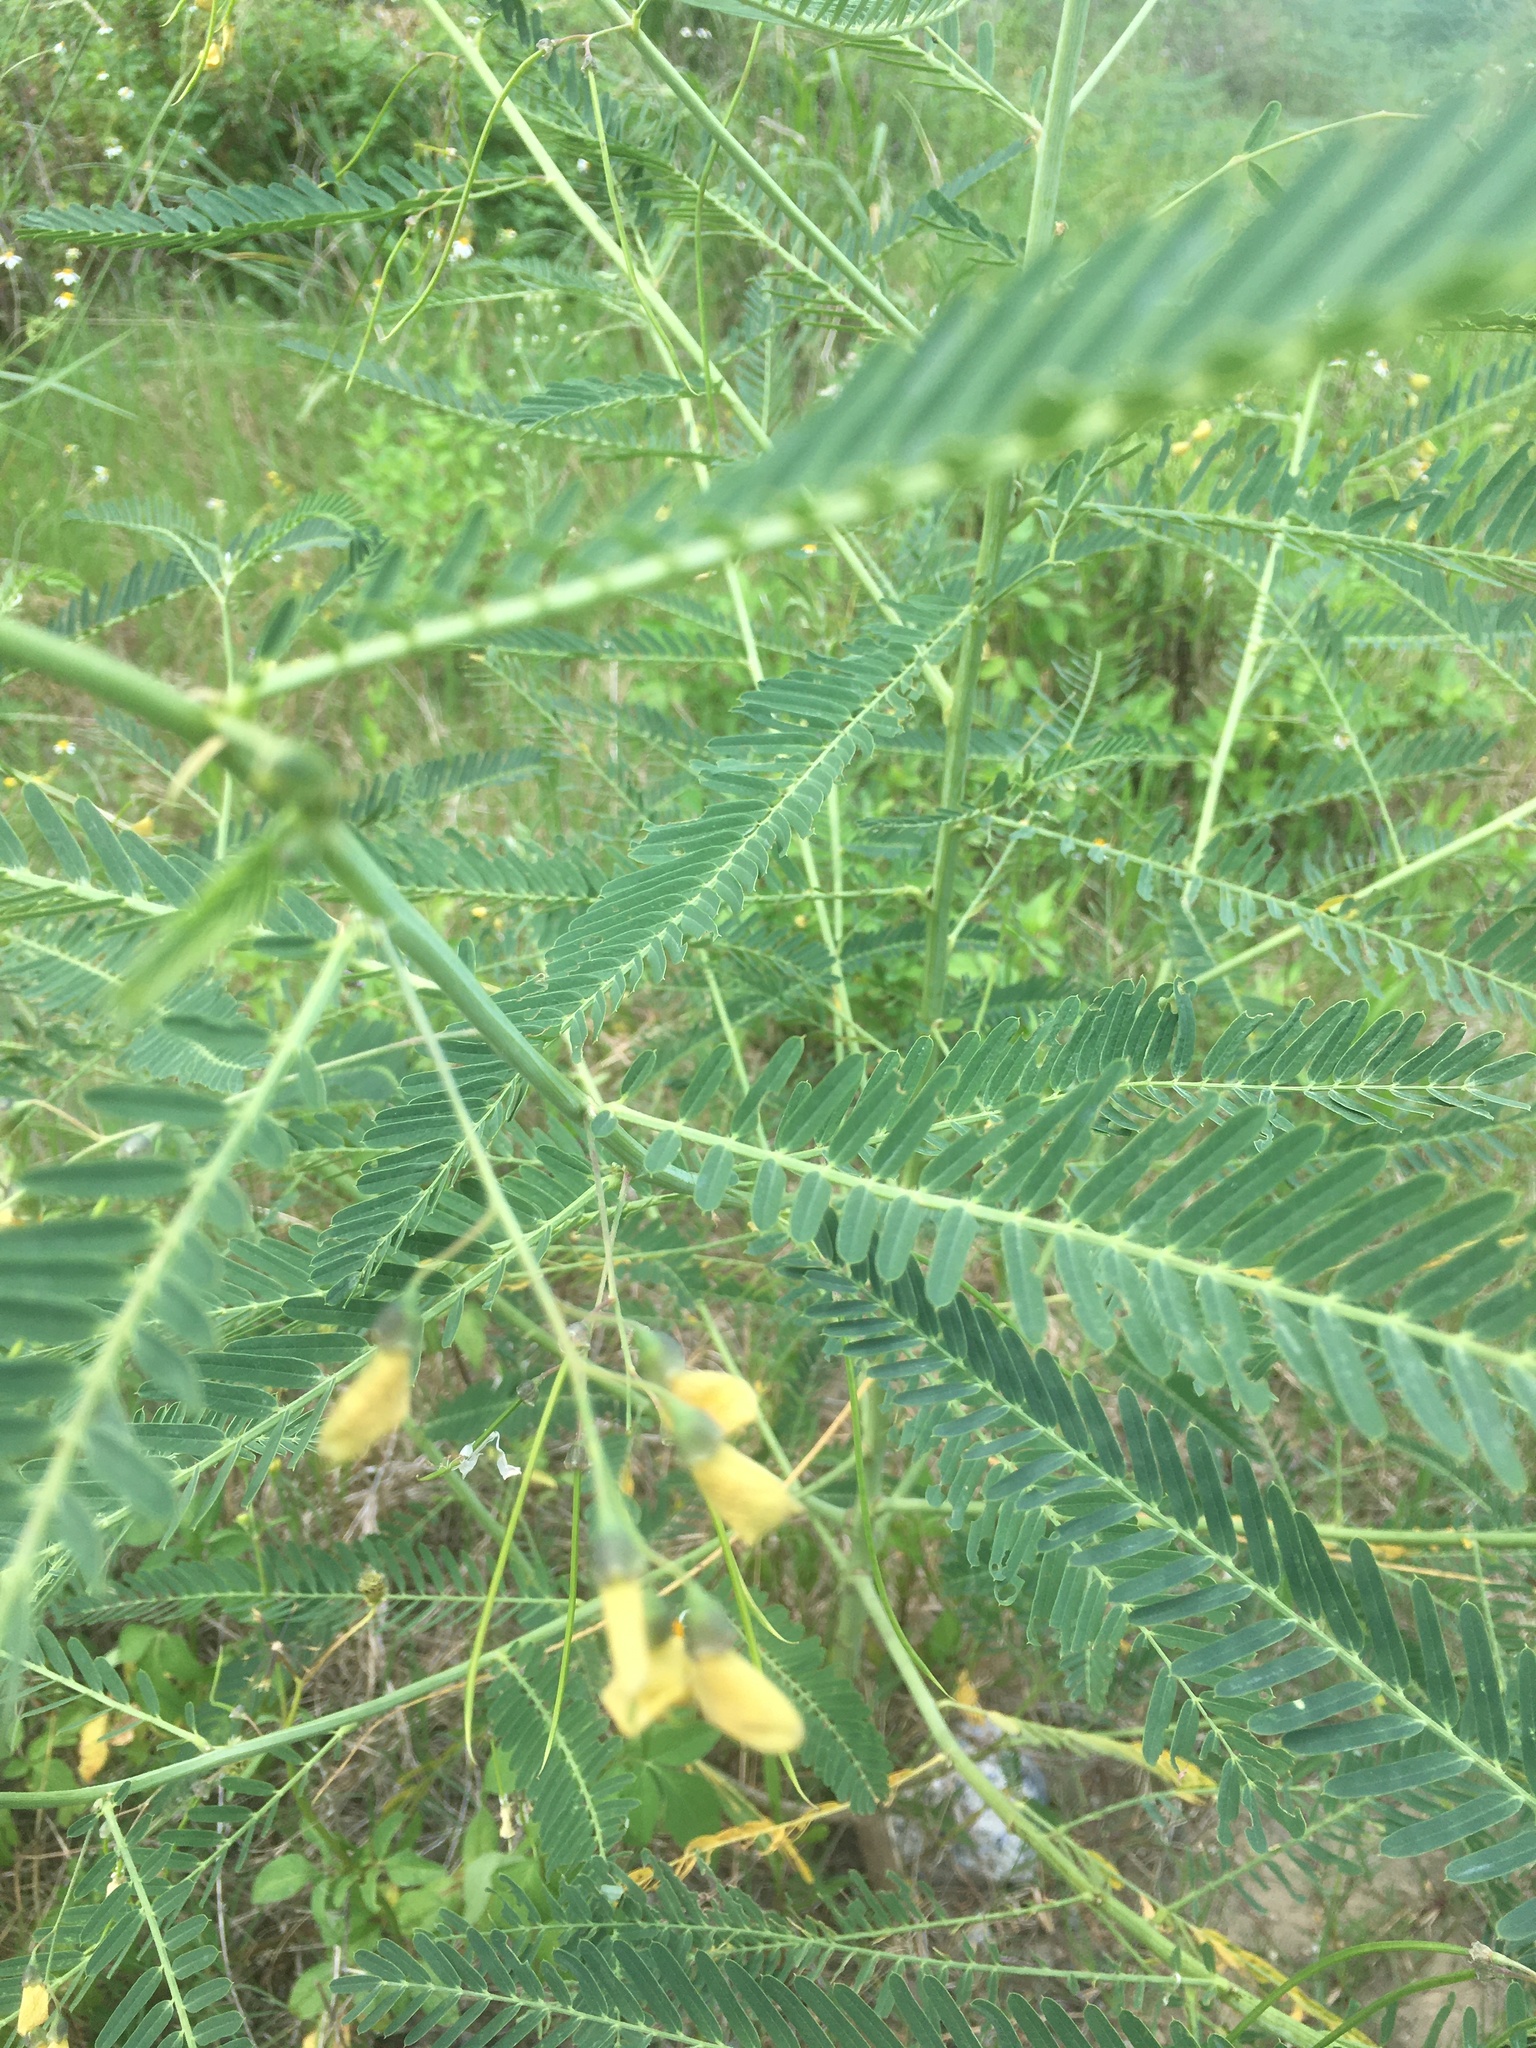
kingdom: Plantae
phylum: Tracheophyta
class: Magnoliopsida
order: Fabales
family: Fabaceae
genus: Sesbania
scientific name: Sesbania cannabina
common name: Canicha
